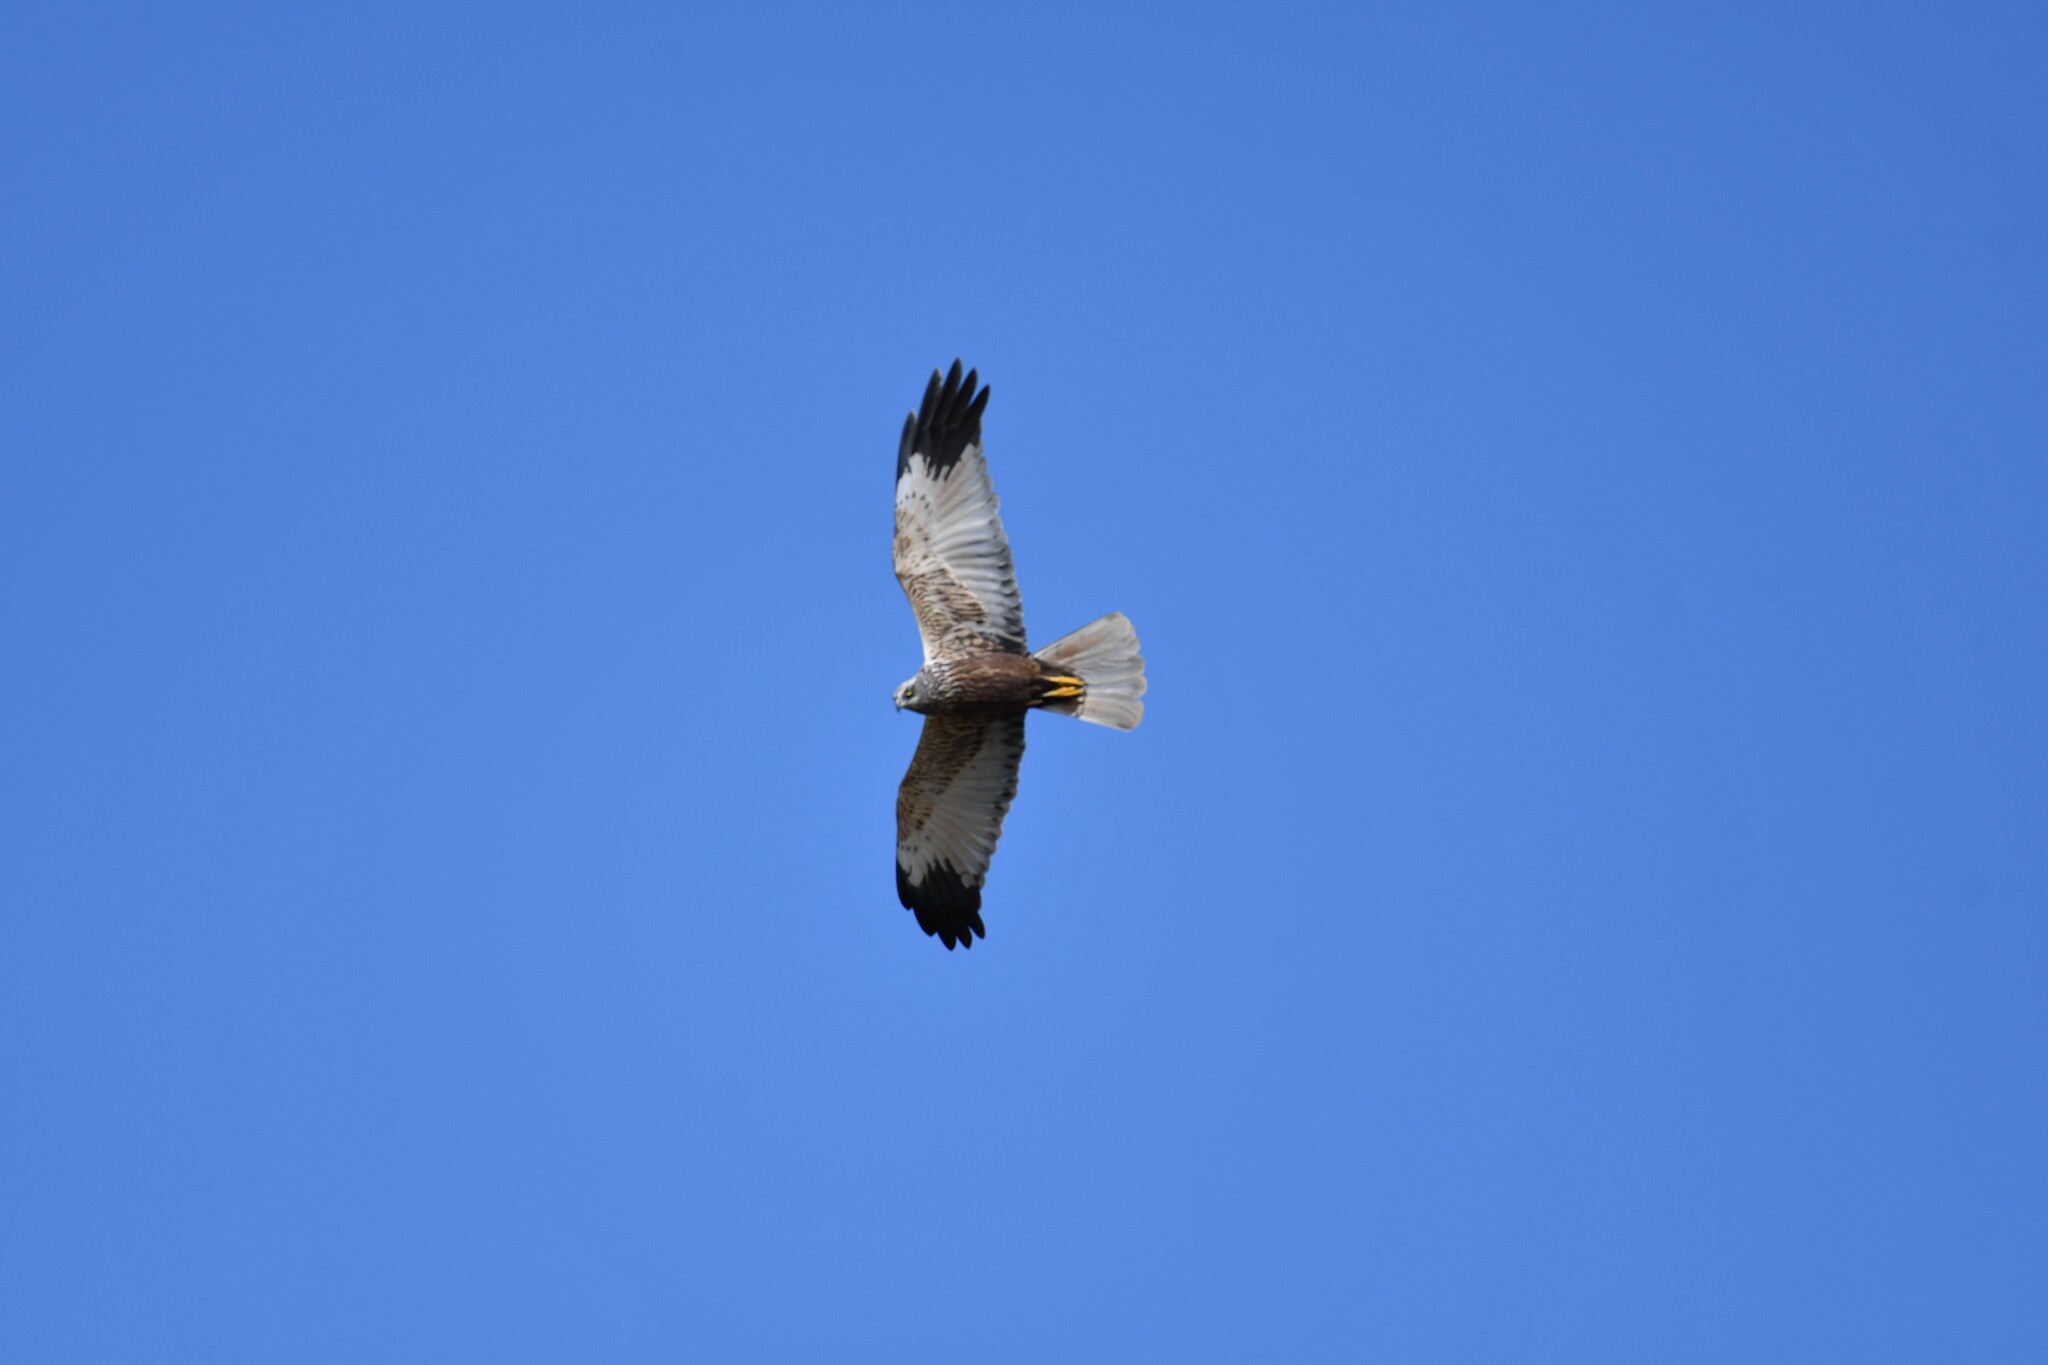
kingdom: Animalia
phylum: Chordata
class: Aves
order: Accipitriformes
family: Accipitridae
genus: Circus
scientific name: Circus aeruginosus
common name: Western marsh harrier
